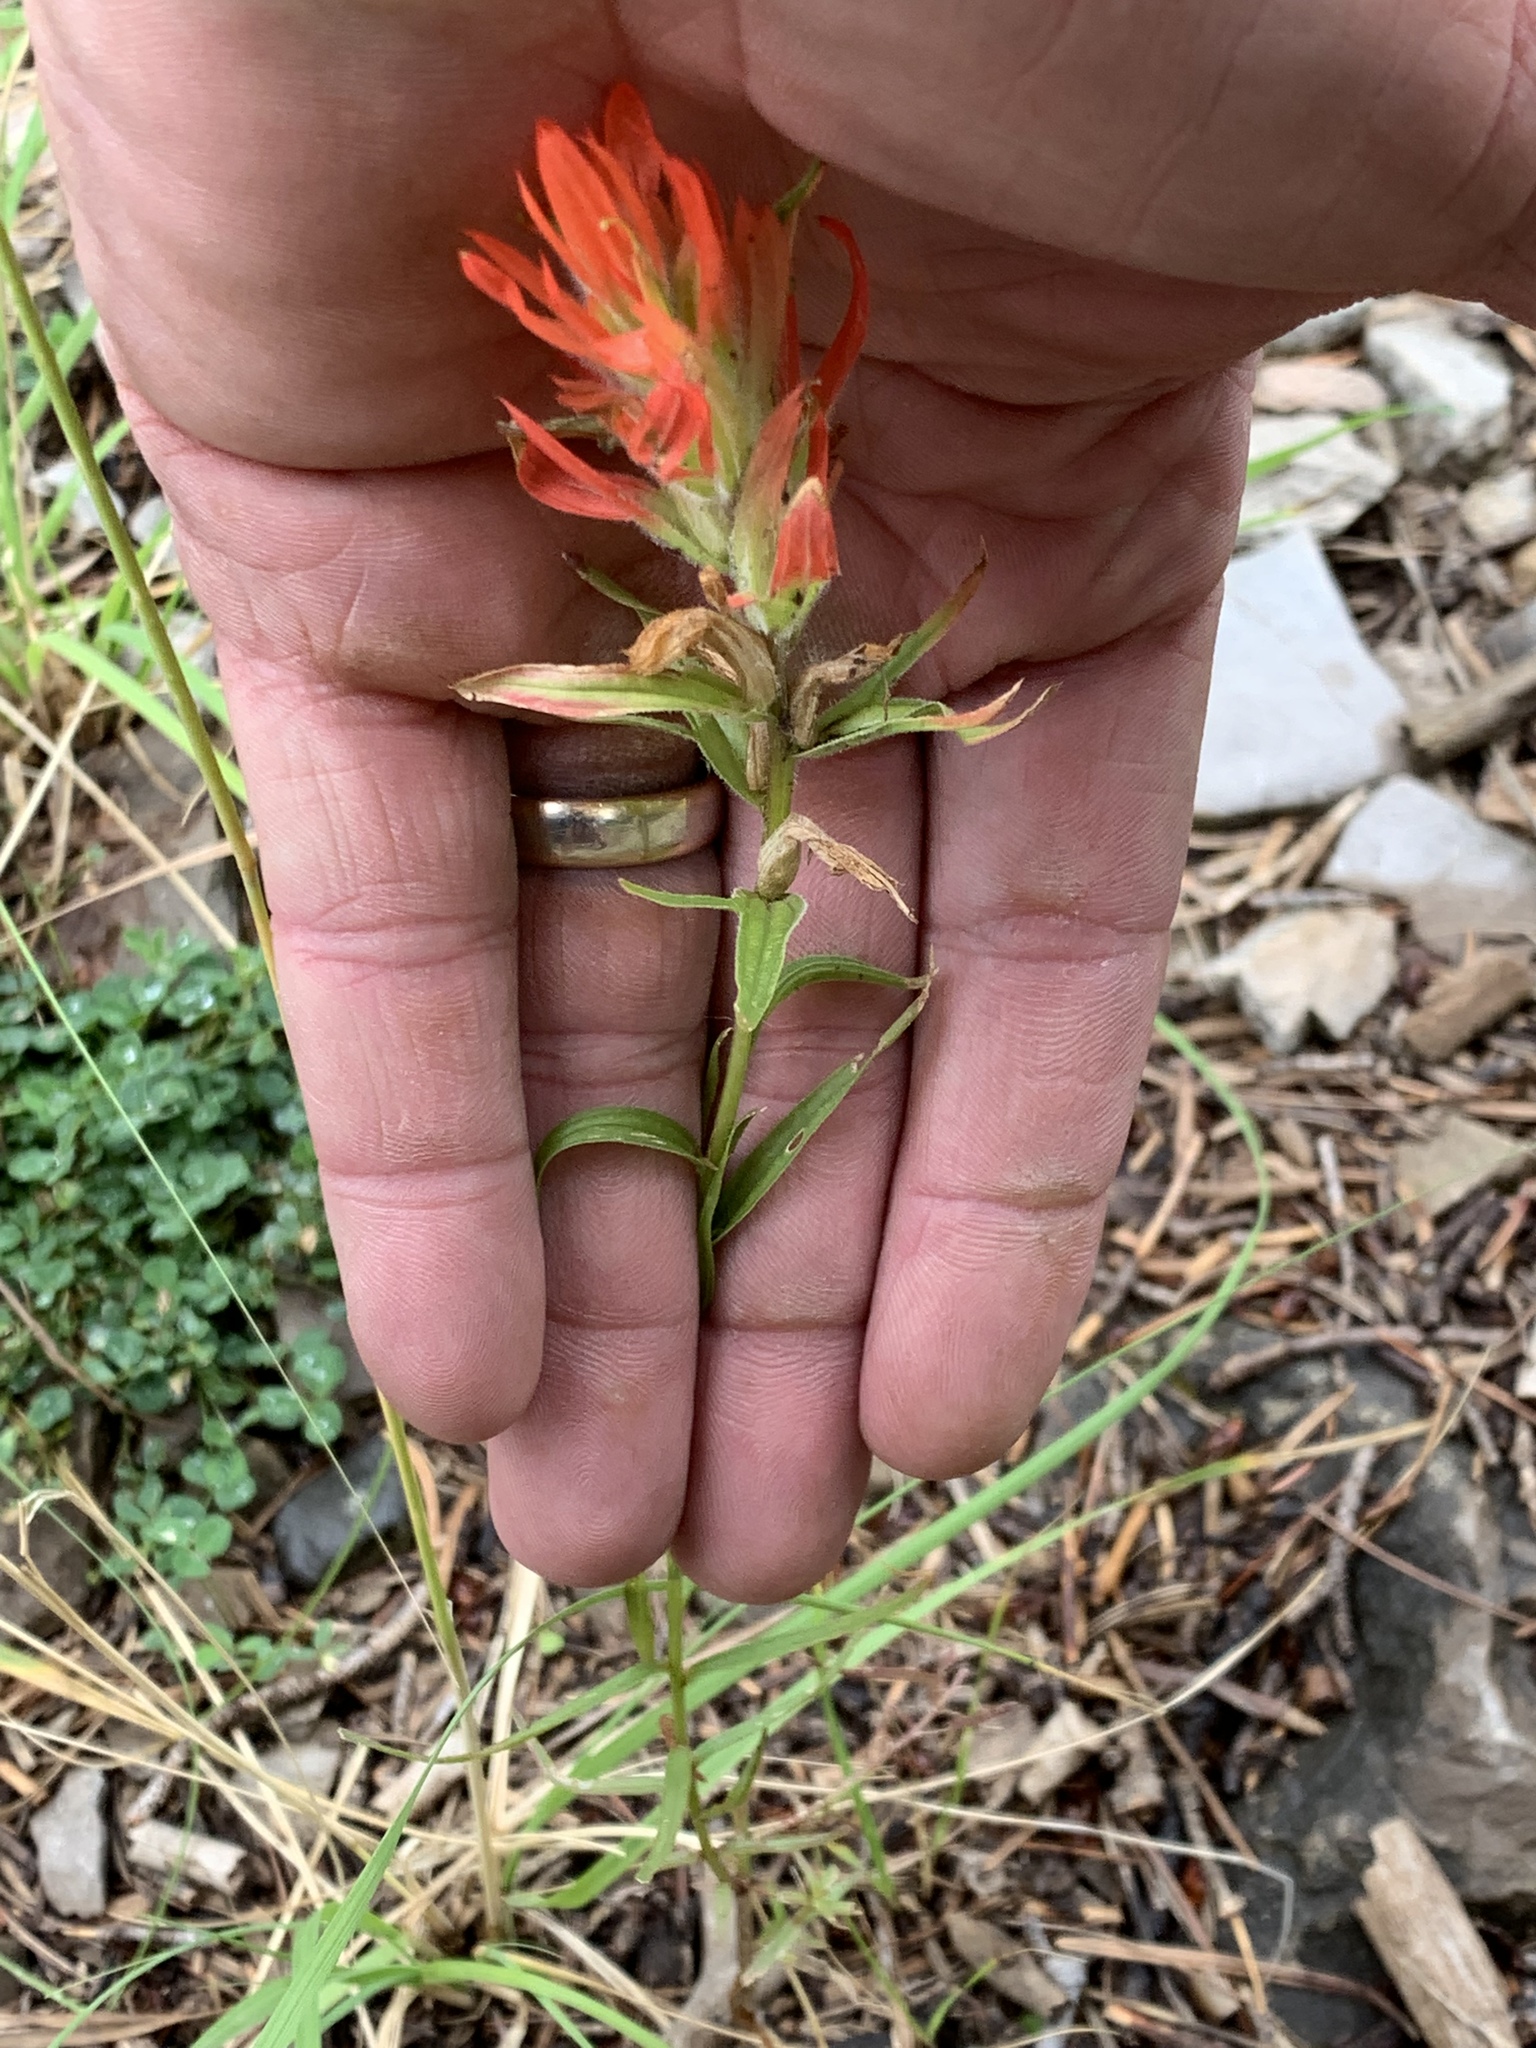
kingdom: Plantae
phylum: Tracheophyta
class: Magnoliopsida
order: Lamiales
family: Orobanchaceae
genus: Castilleja
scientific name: Castilleja wootonii
